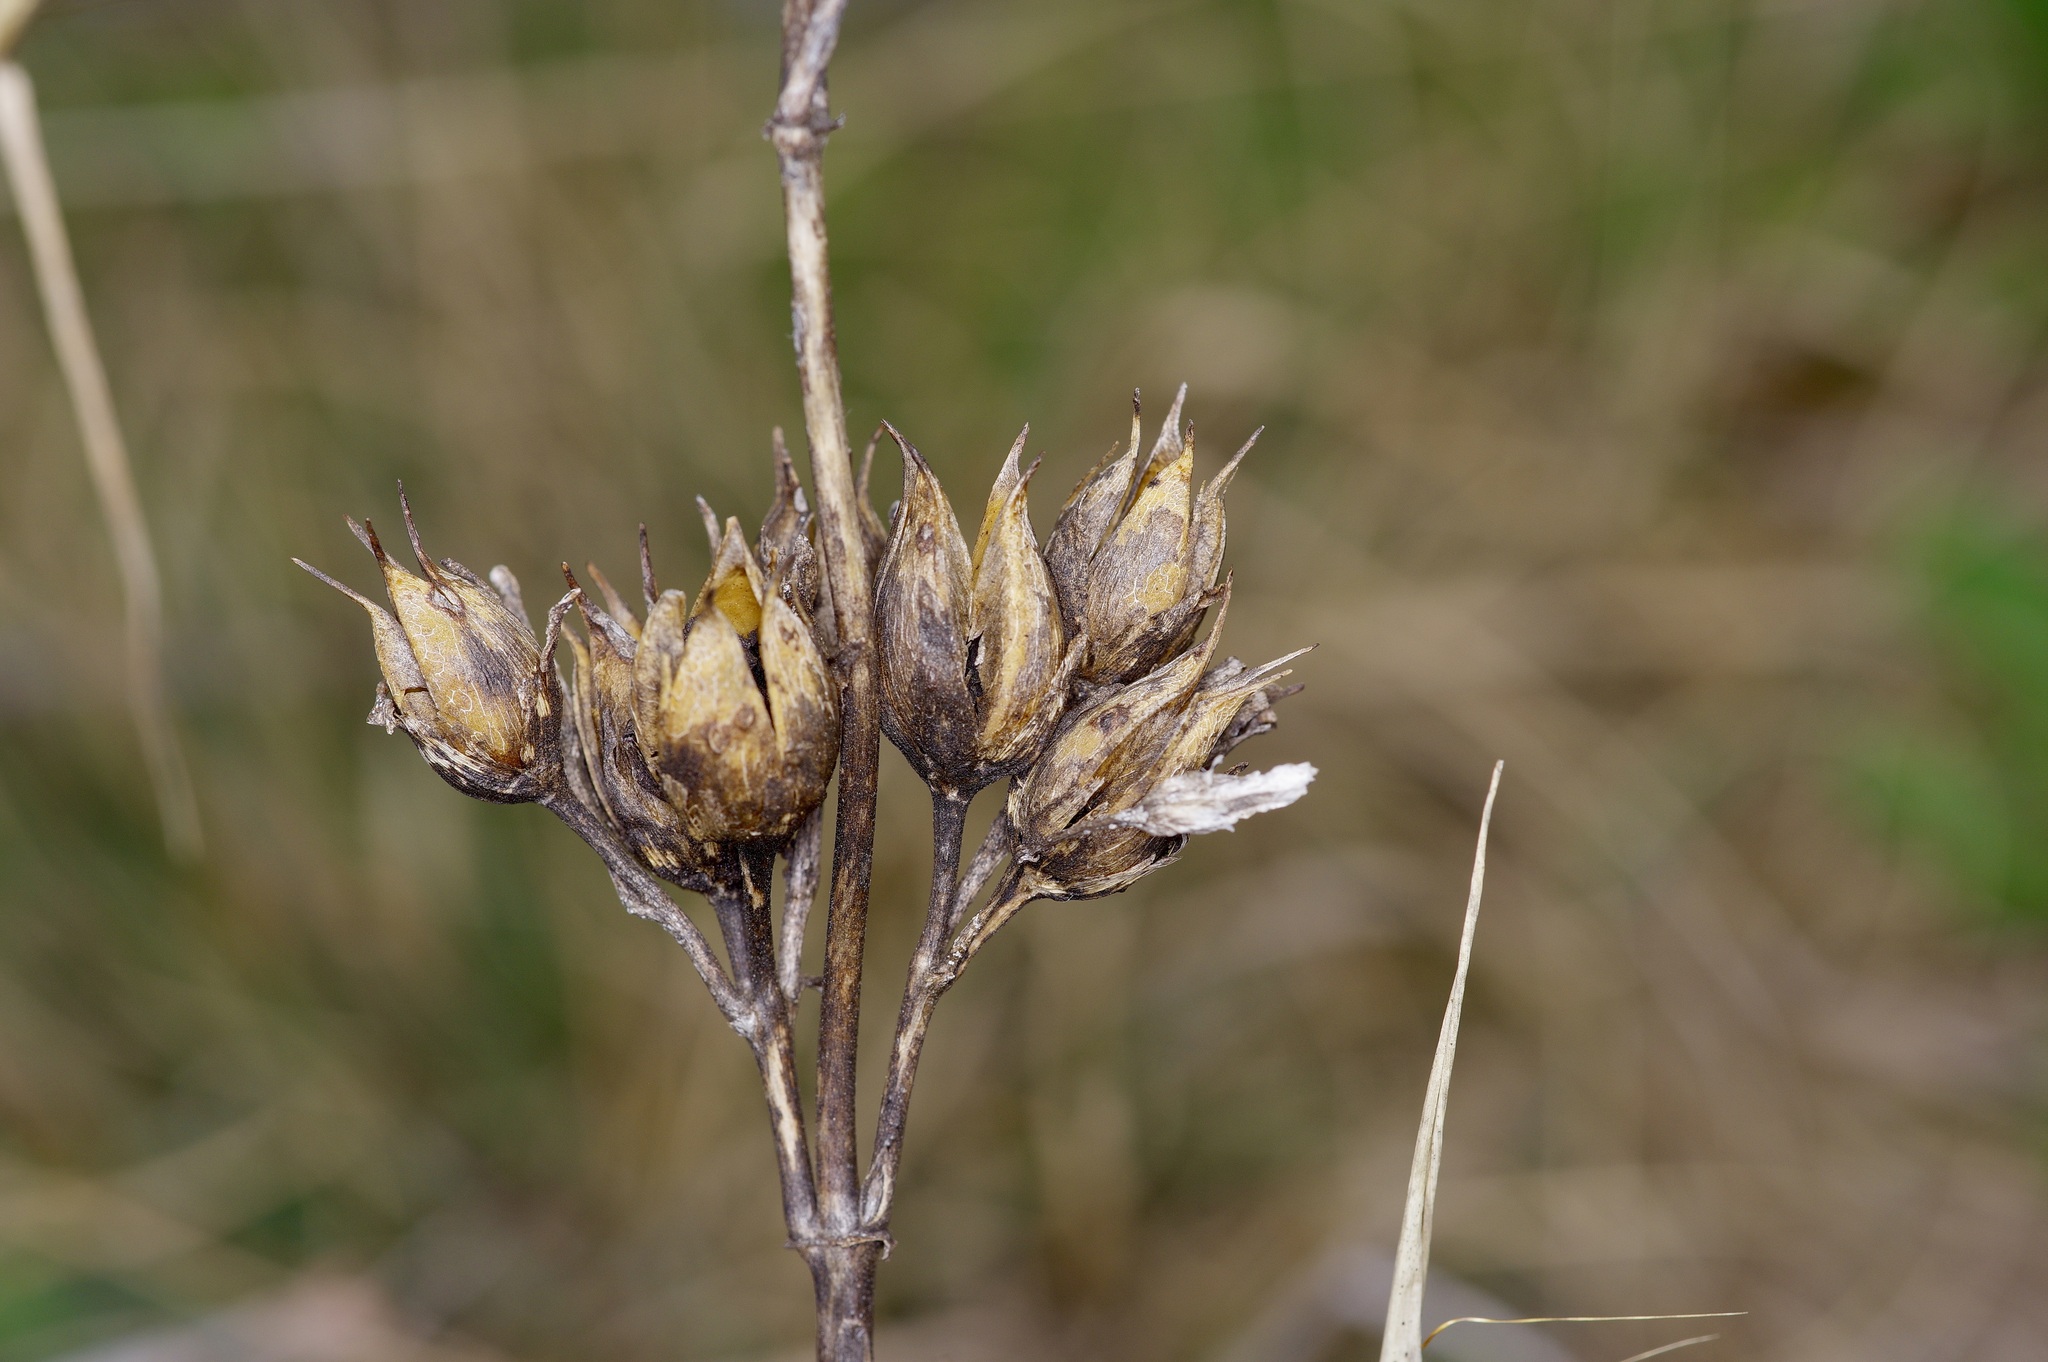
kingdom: Plantae
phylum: Tracheophyta
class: Magnoliopsida
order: Lamiales
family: Plantaginaceae
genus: Penstemon
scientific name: Penstemon cobaea
